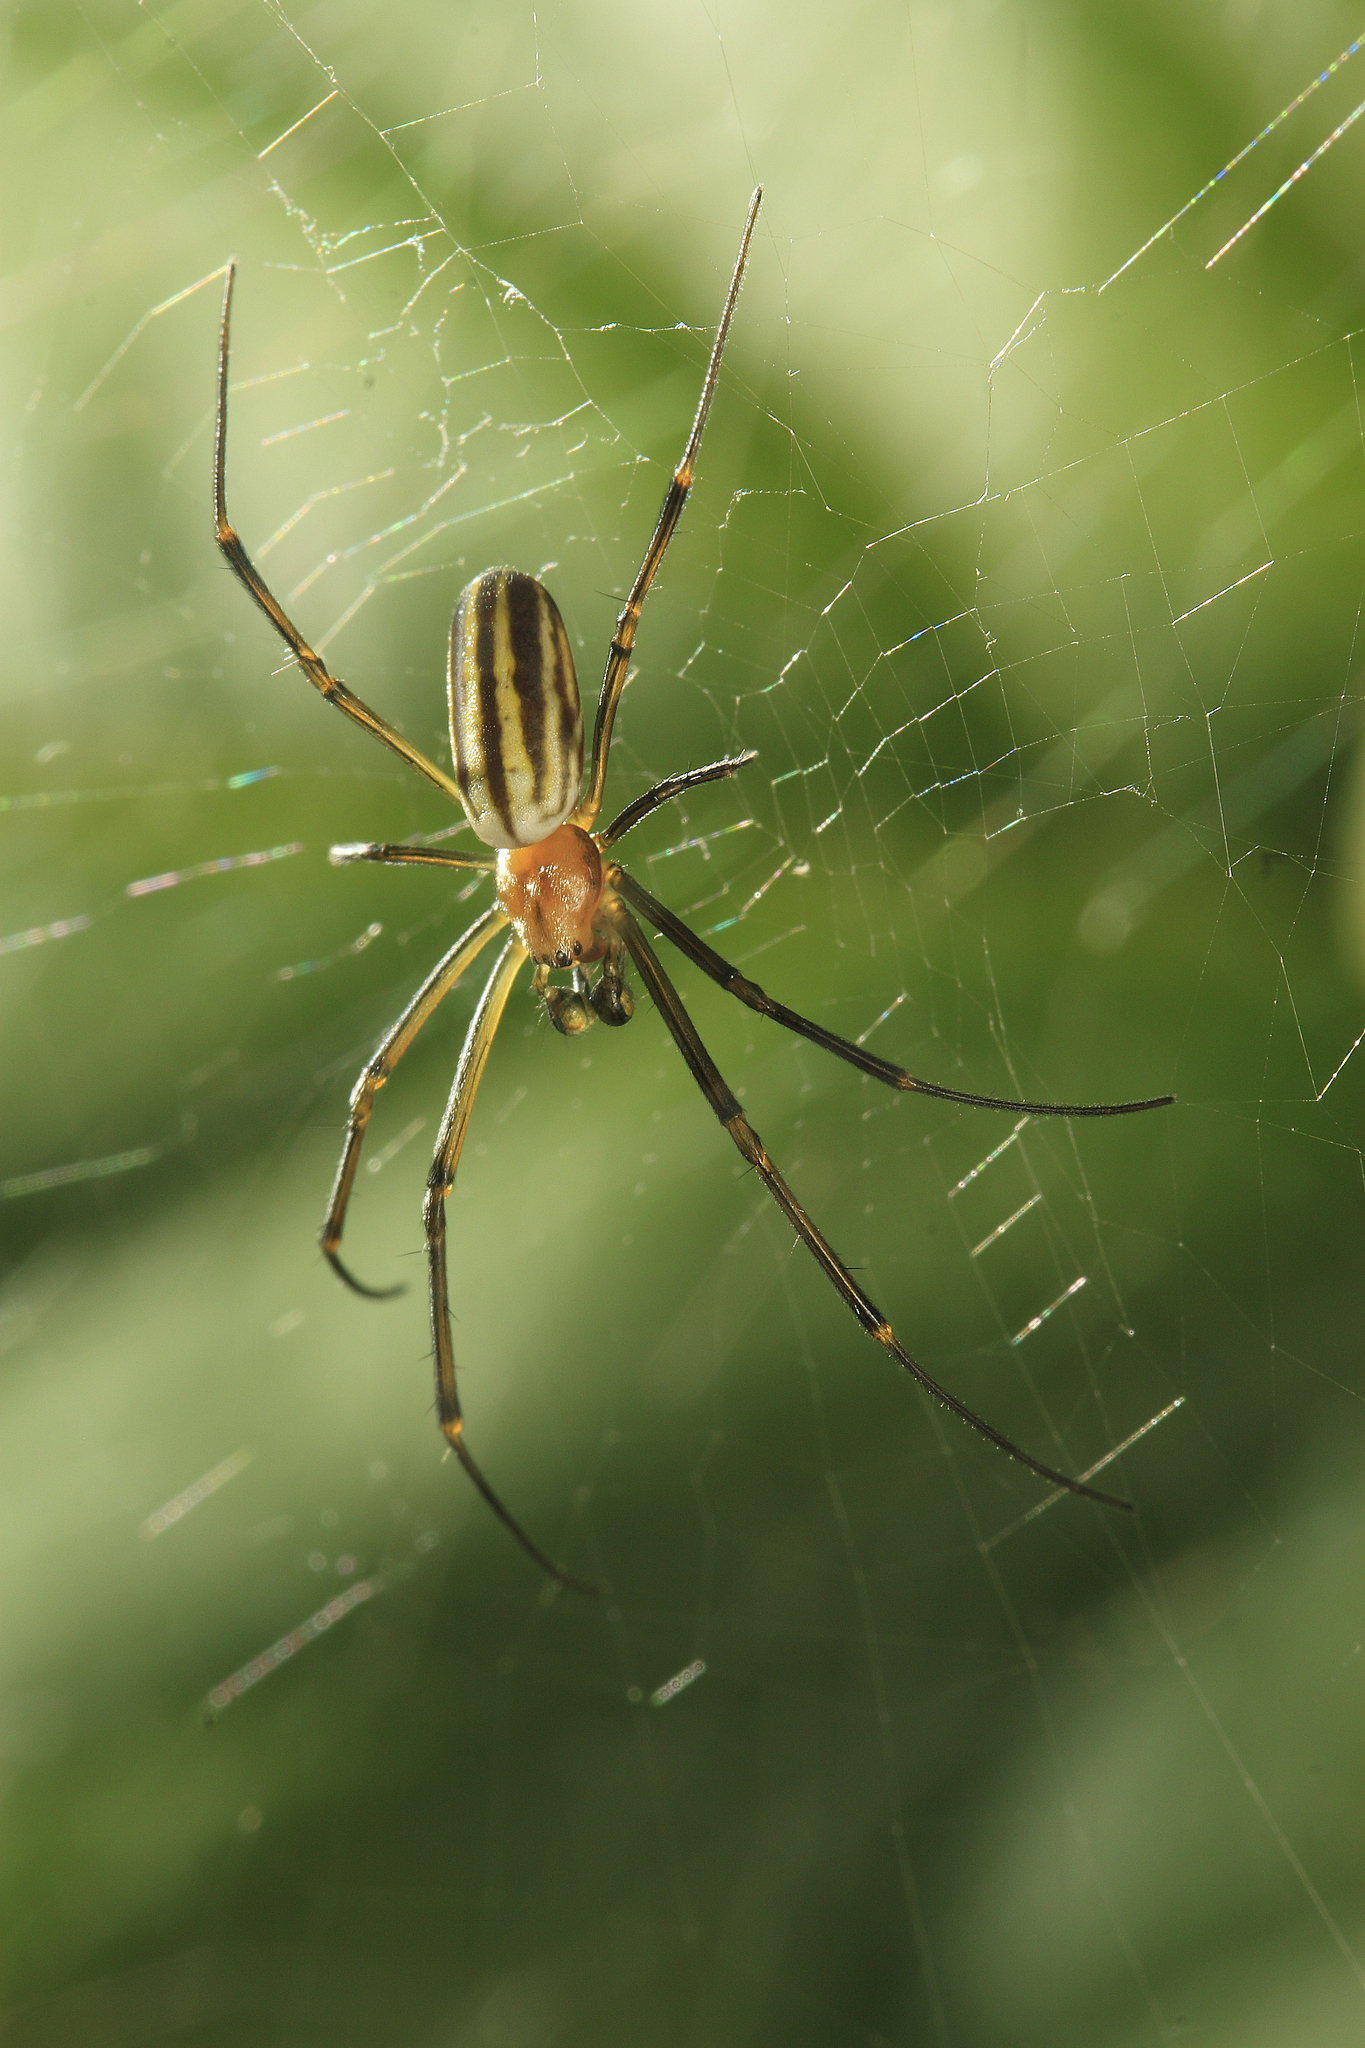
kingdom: Animalia
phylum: Arthropoda
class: Arachnida
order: Araneae
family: Araneidae
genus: Nephila
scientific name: Nephila pilipes
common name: Giant golden orb weaver
